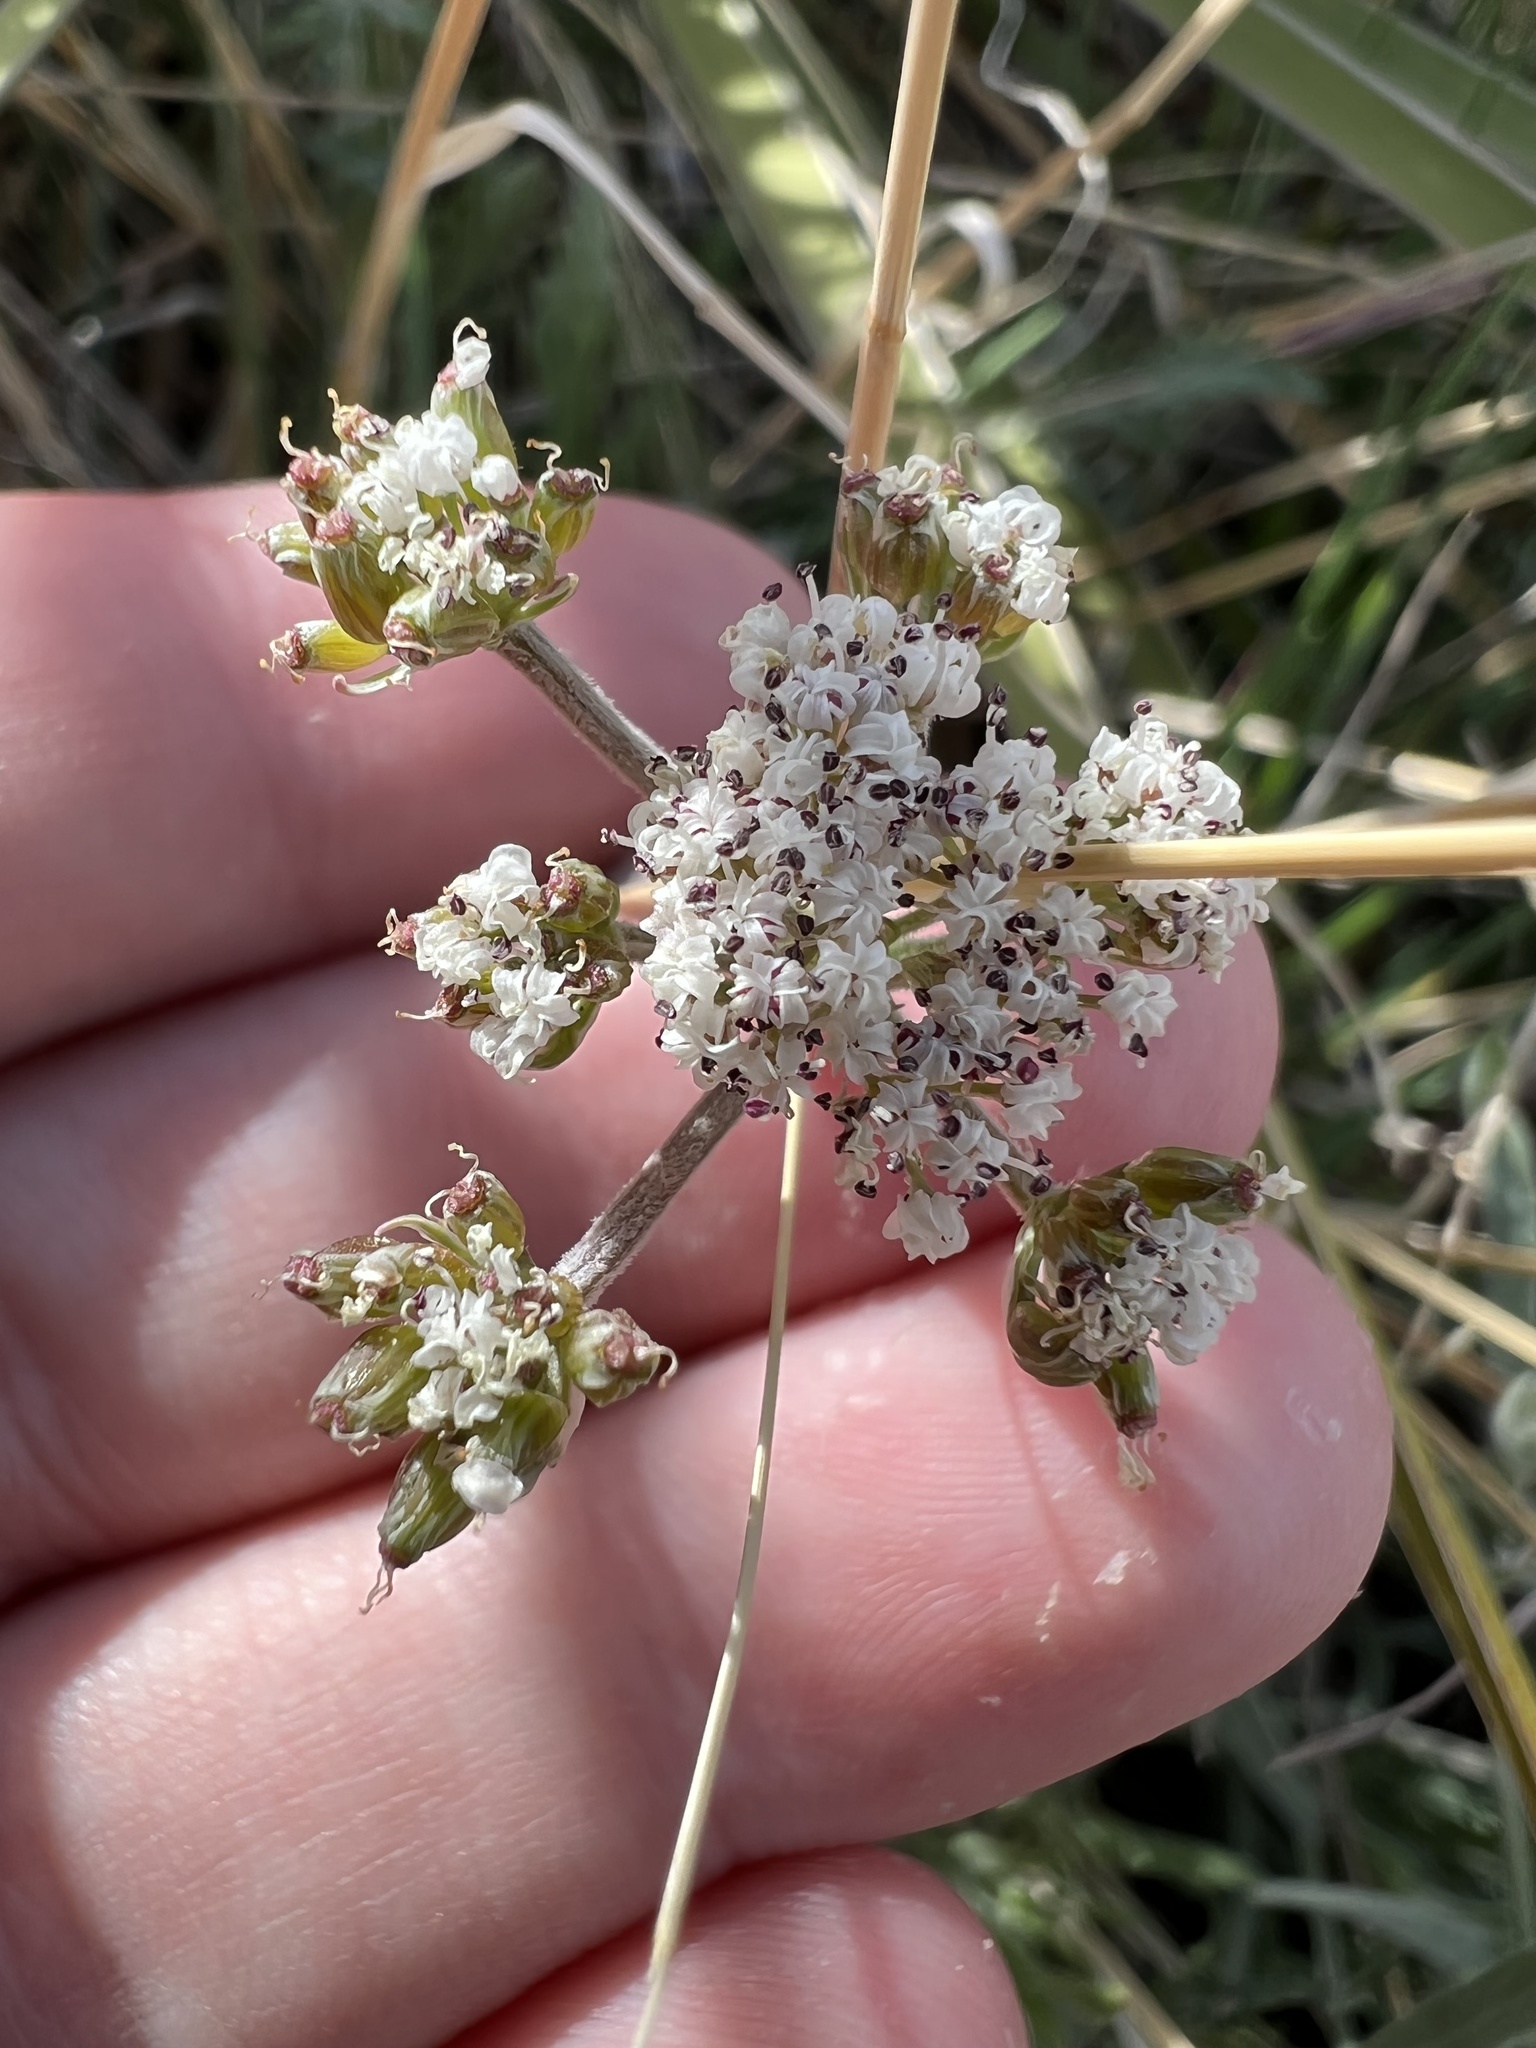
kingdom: Plantae
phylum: Tracheophyta
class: Magnoliopsida
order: Apiales
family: Apiaceae
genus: Lomatium
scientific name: Lomatium orientale
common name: Eastern cous
